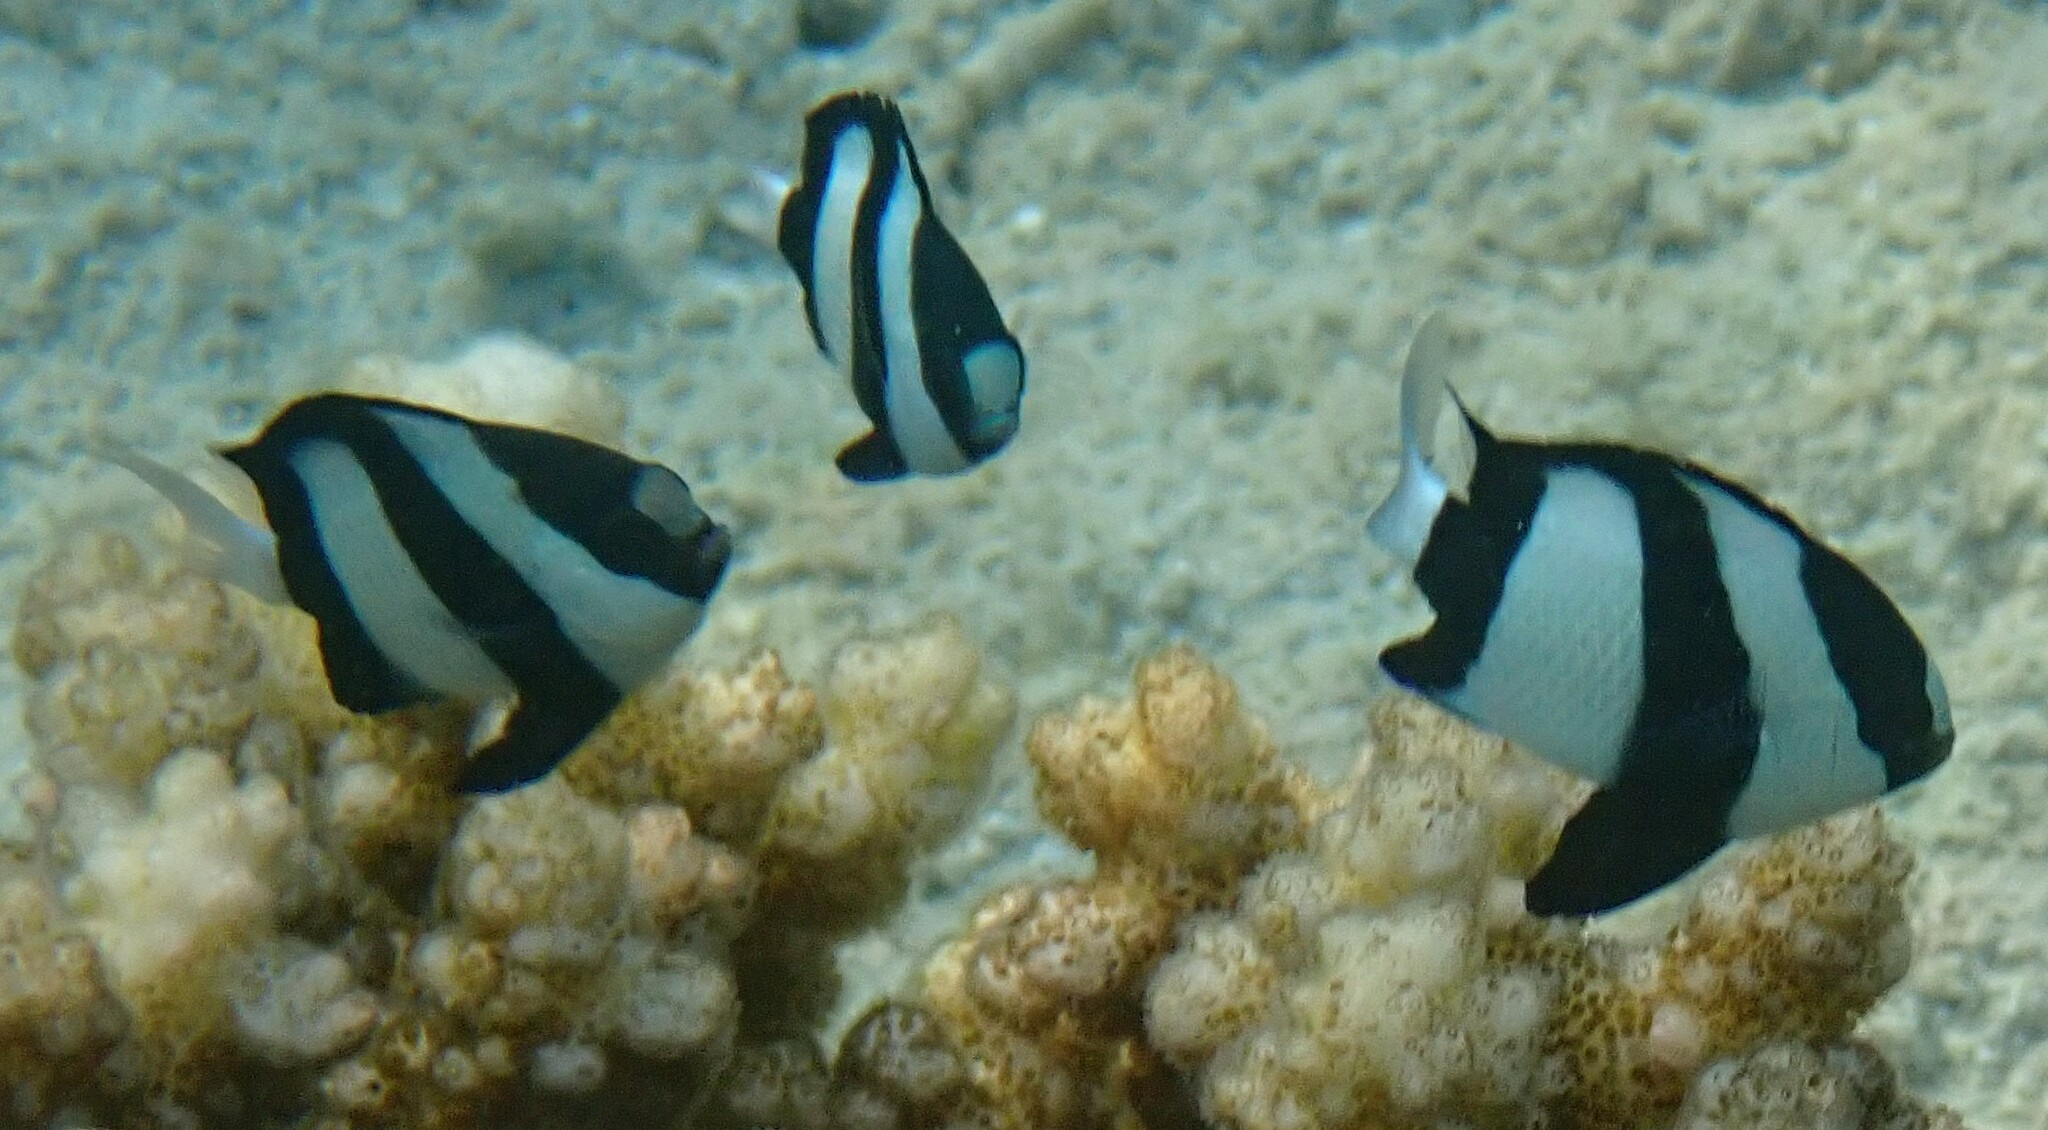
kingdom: Animalia
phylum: Chordata
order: Perciformes
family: Pomacentridae
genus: Dascyllus
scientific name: Dascyllus aruanus
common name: Humbug dascyllus
